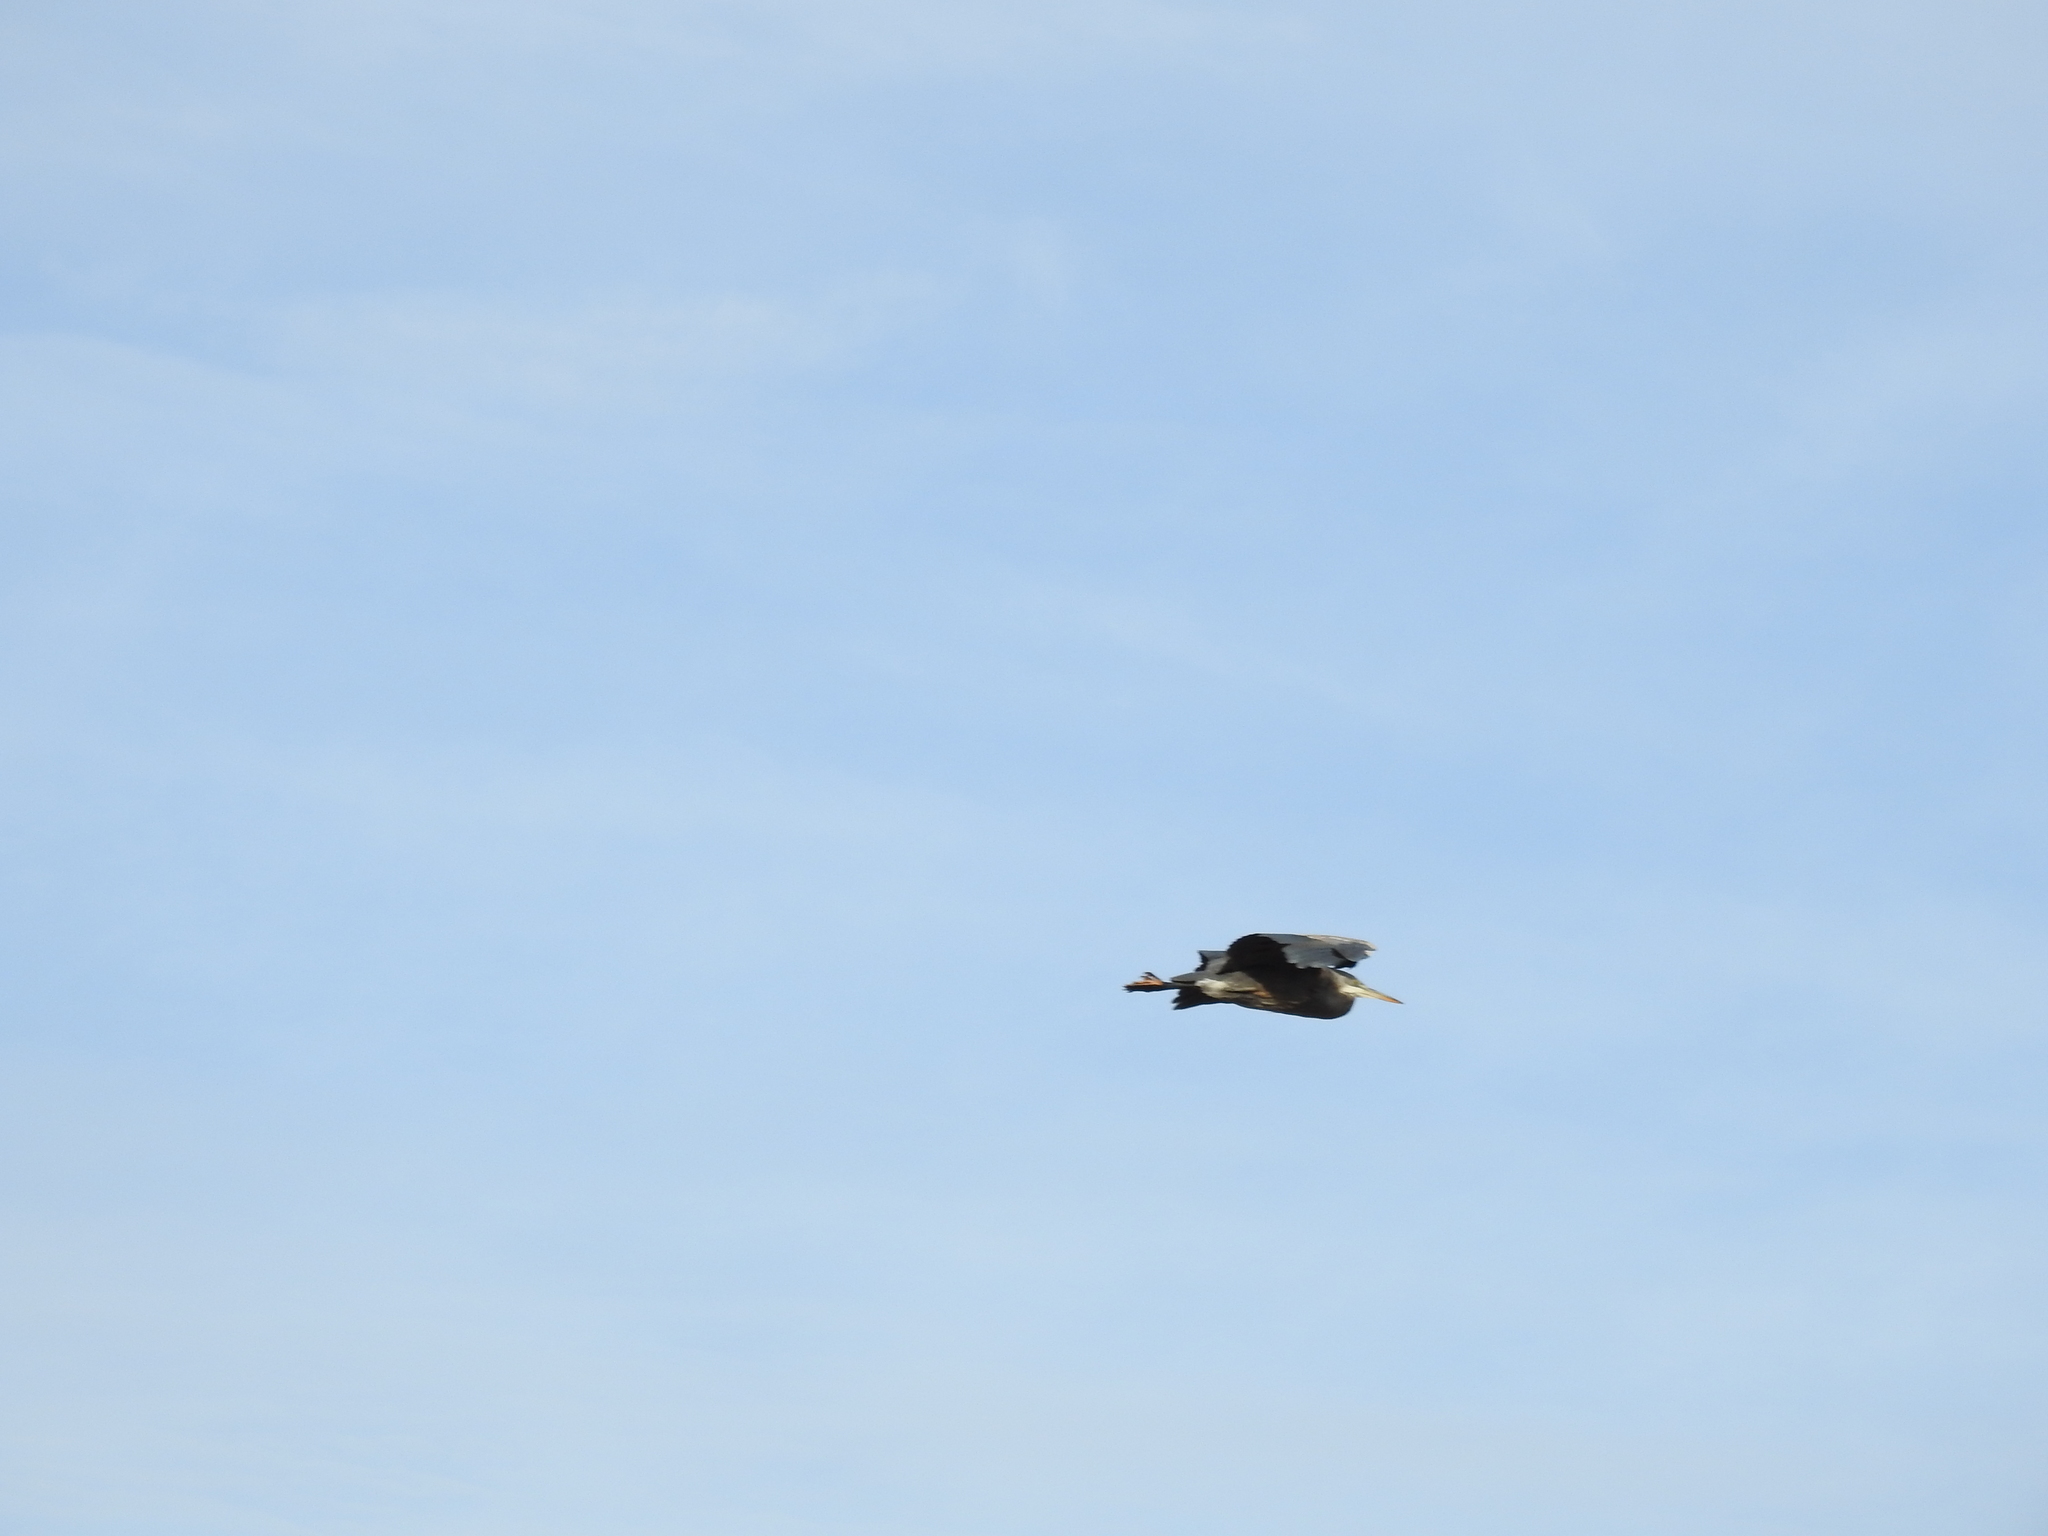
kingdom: Animalia
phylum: Chordata
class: Aves
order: Pelecaniformes
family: Ardeidae
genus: Ardea
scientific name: Ardea herodias
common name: Great blue heron
